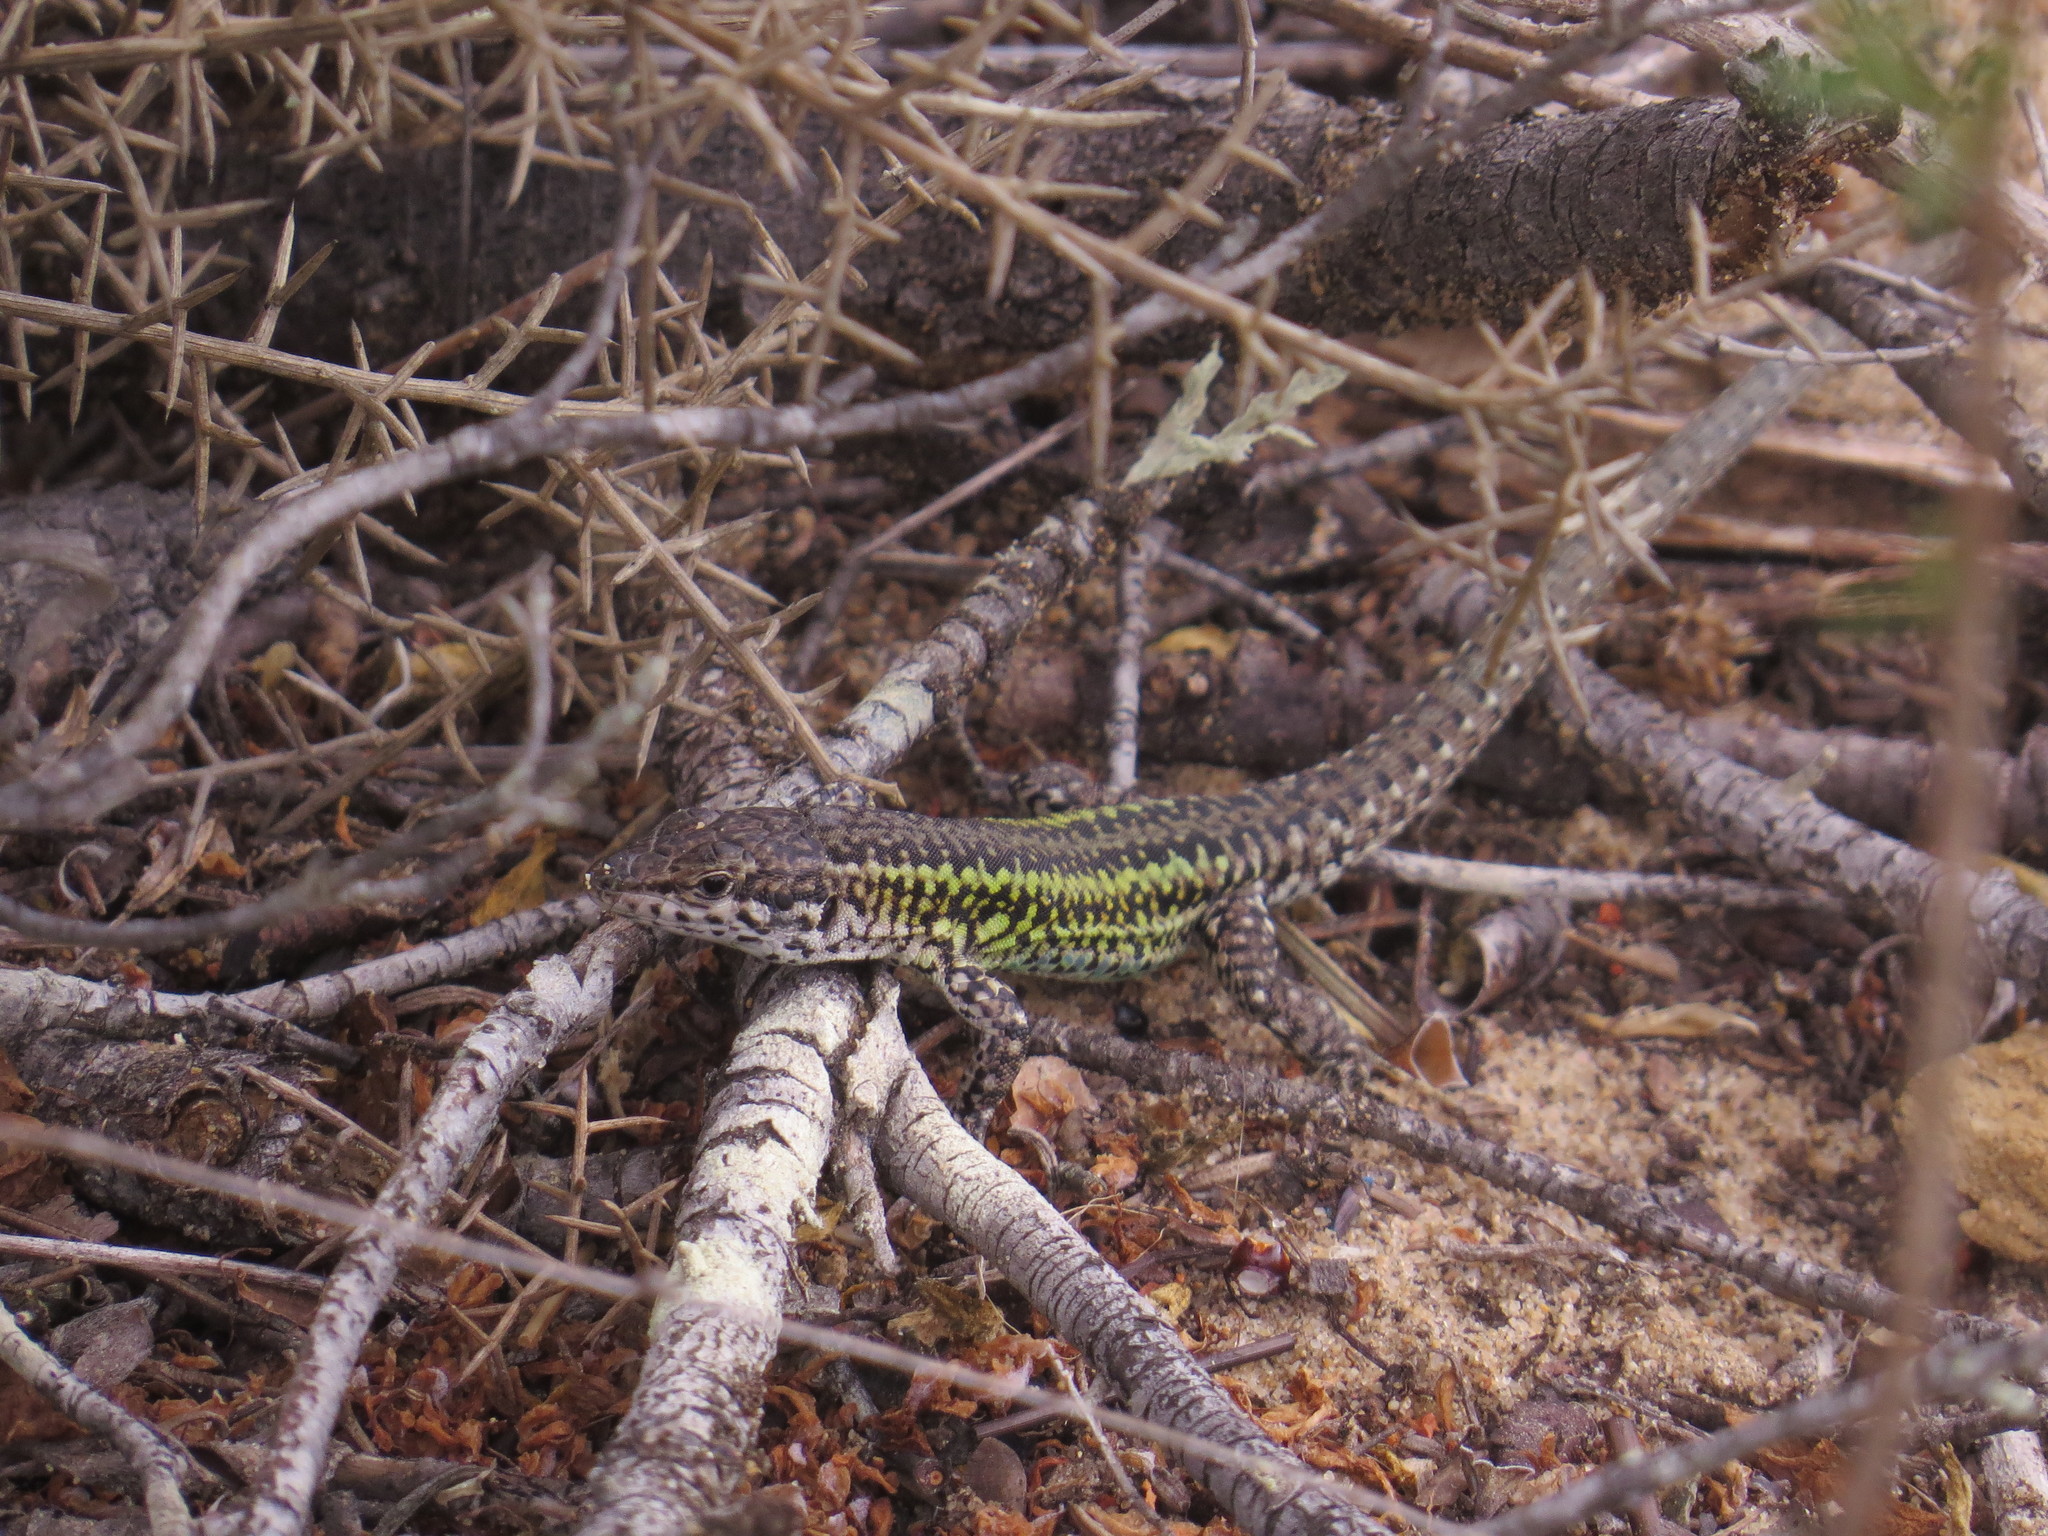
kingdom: Animalia
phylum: Chordata
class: Squamata
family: Lacertidae
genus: Podarcis
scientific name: Podarcis carbonelli
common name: Carbonelli's wall lizard
